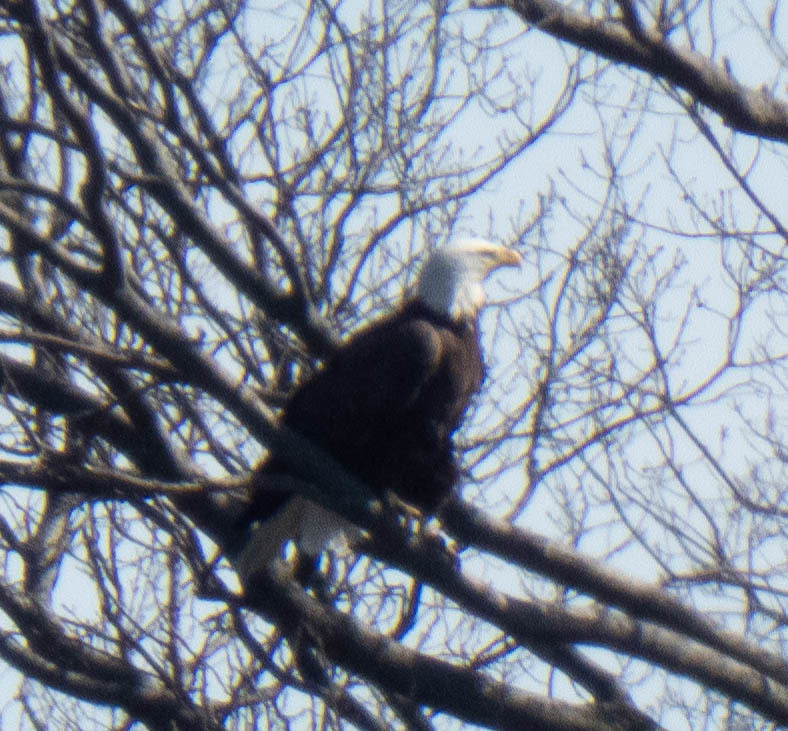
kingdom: Animalia
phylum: Chordata
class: Aves
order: Accipitriformes
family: Accipitridae
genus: Haliaeetus
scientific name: Haliaeetus leucocephalus
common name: Bald eagle
